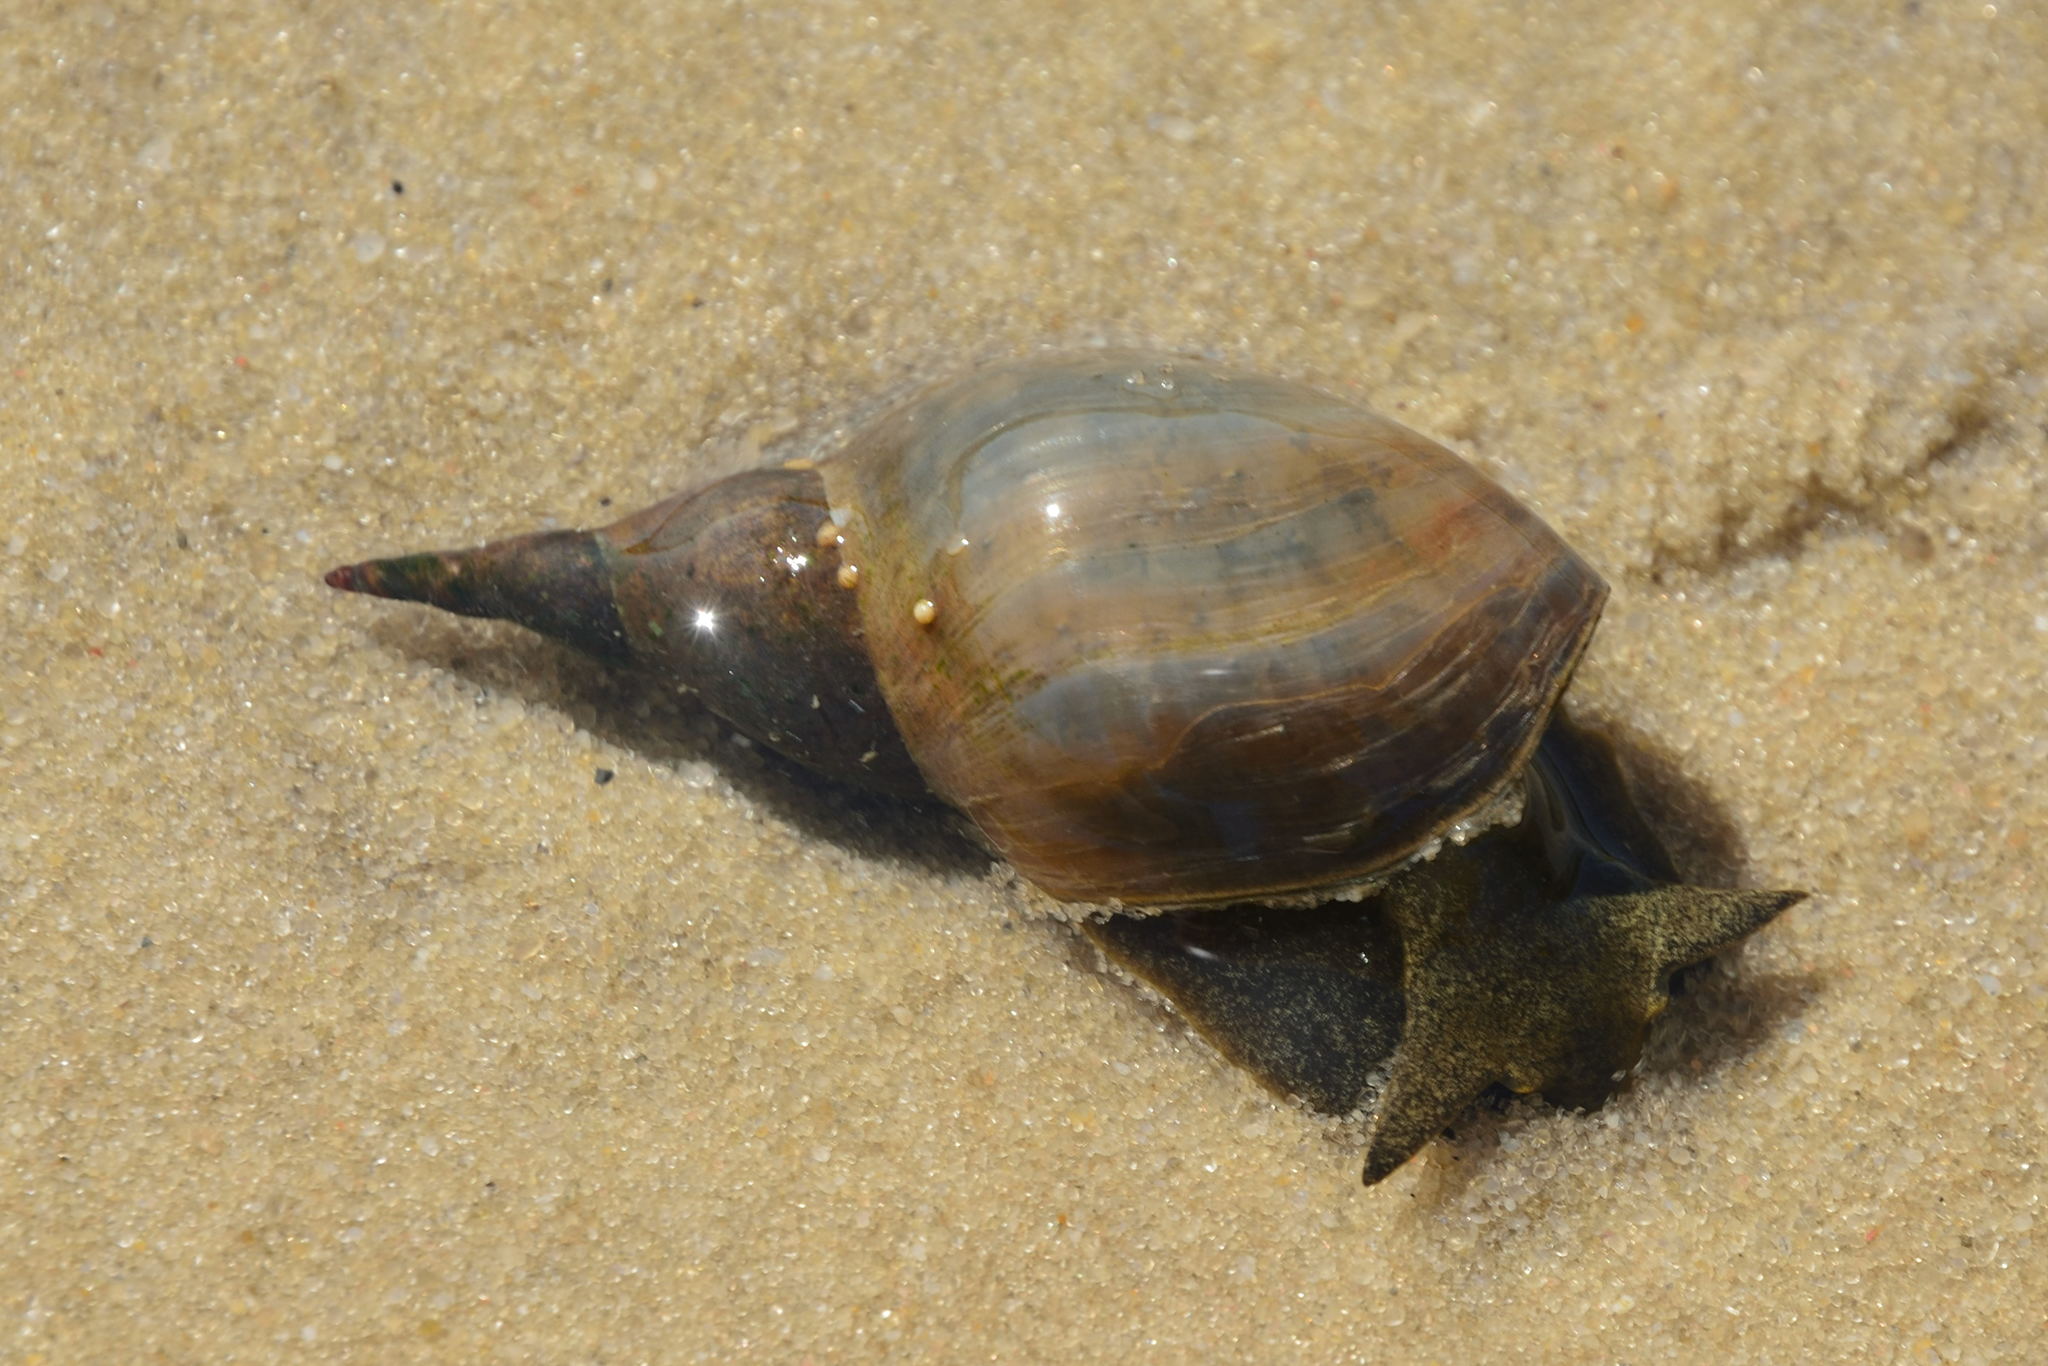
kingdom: Animalia
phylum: Mollusca
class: Gastropoda
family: Lymnaeidae
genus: Lymnaea
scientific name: Lymnaea stagnalis
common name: Great pond snail
